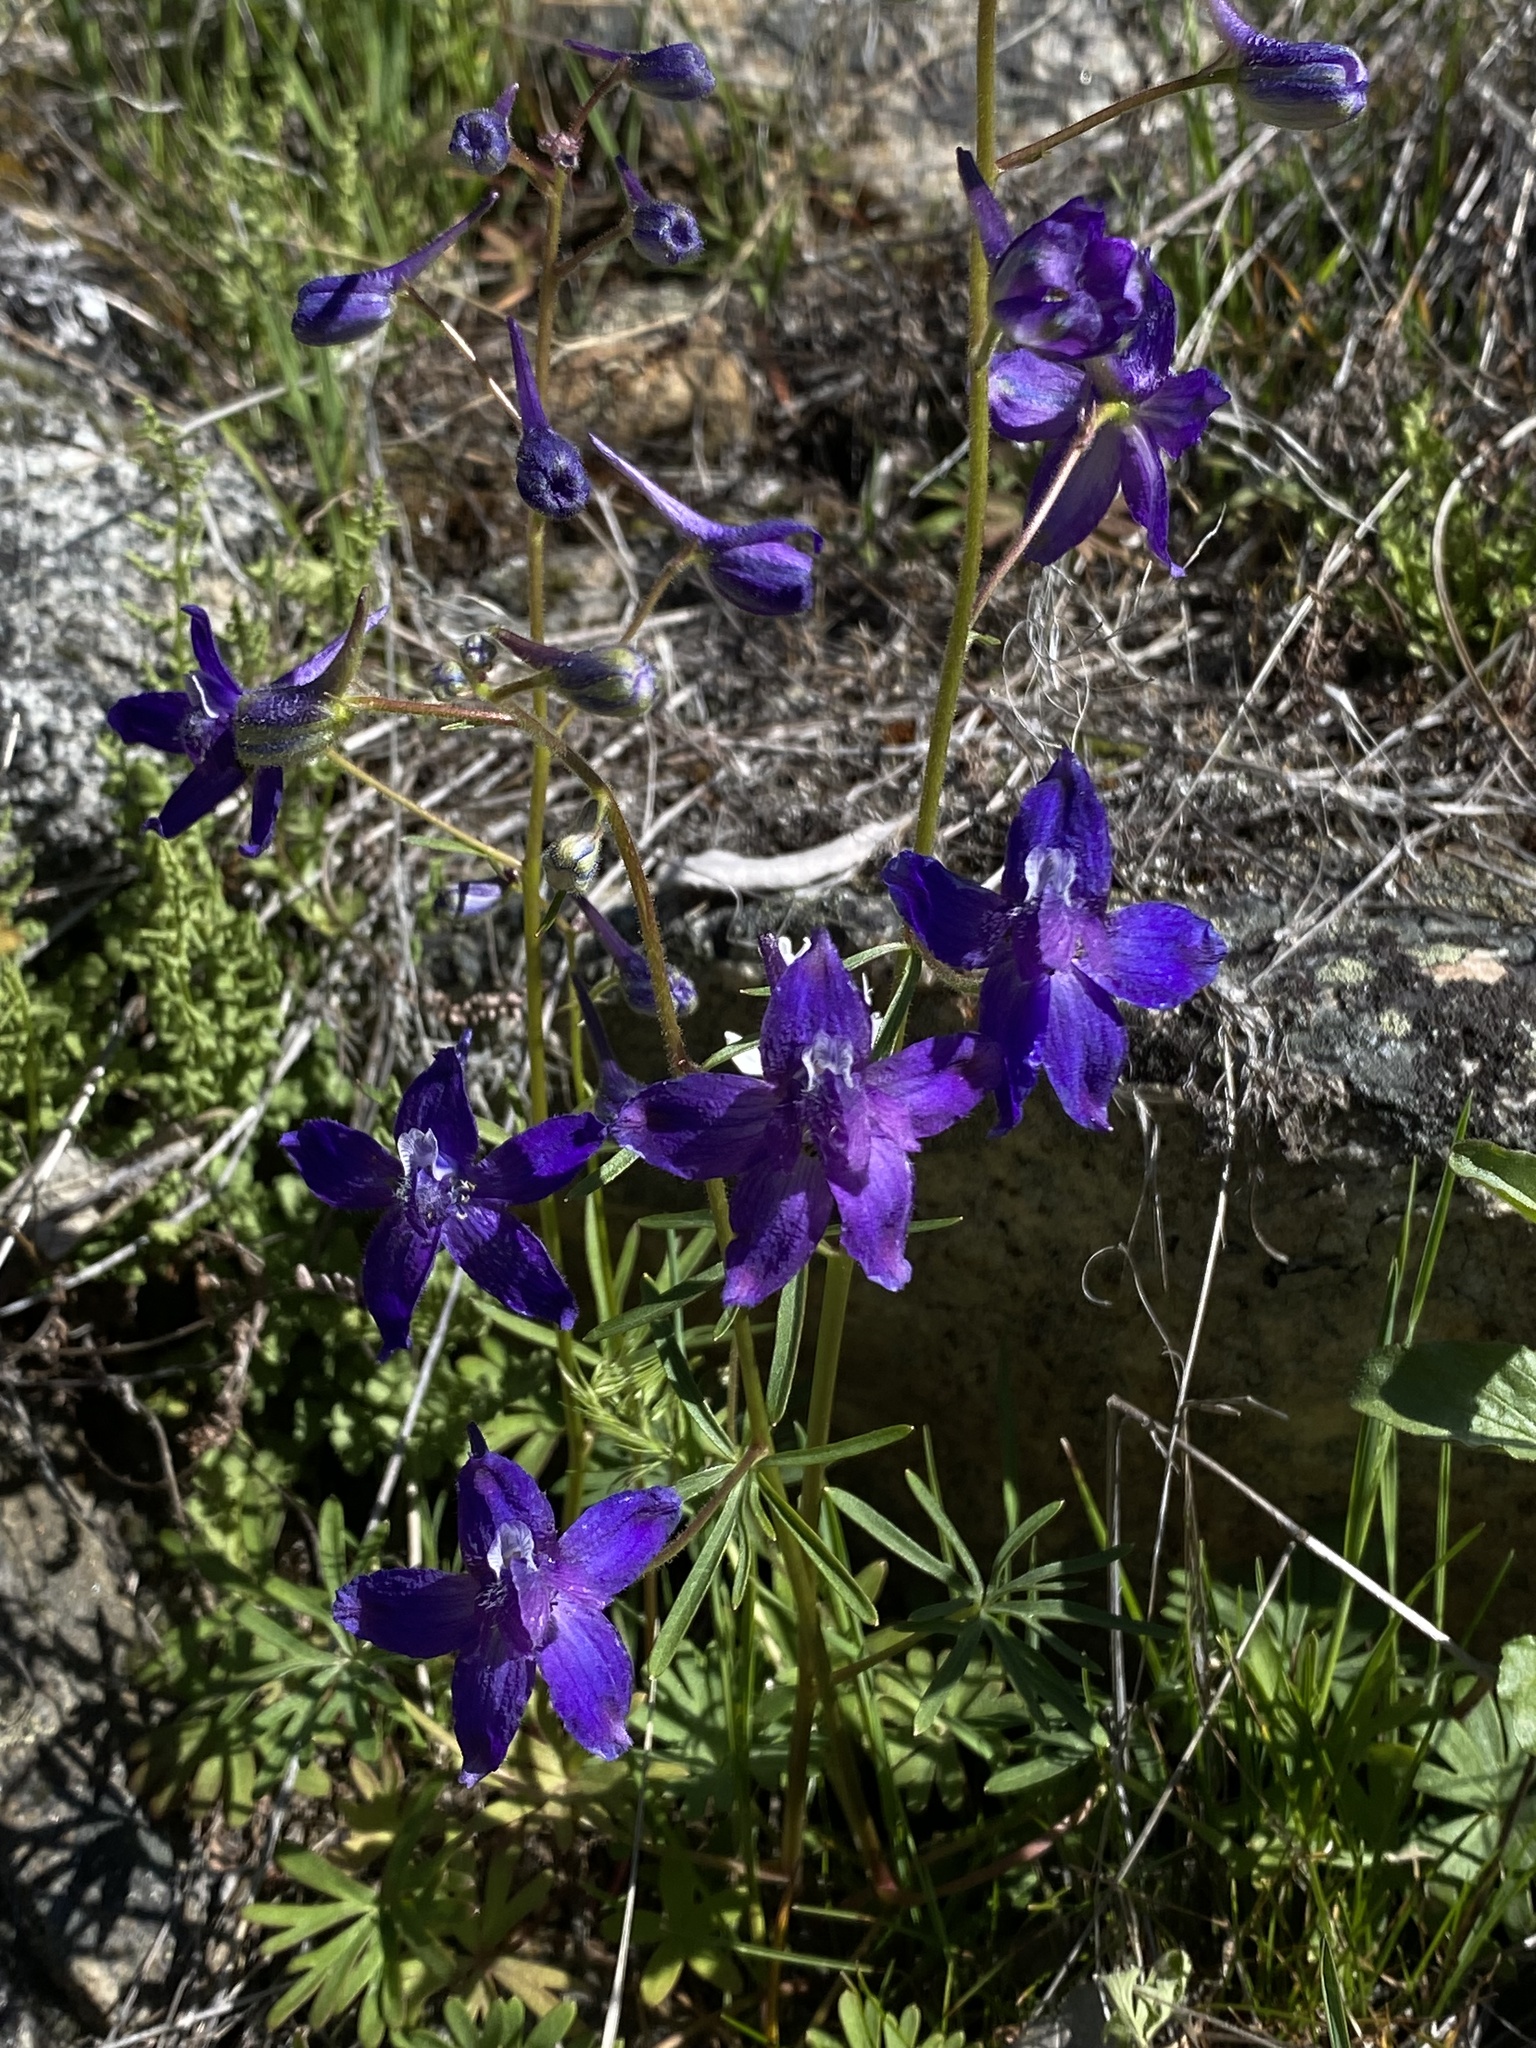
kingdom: Plantae
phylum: Tracheophyta
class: Magnoliopsida
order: Ranunculales
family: Ranunculaceae
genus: Delphinium
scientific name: Delphinium nuttallianum
